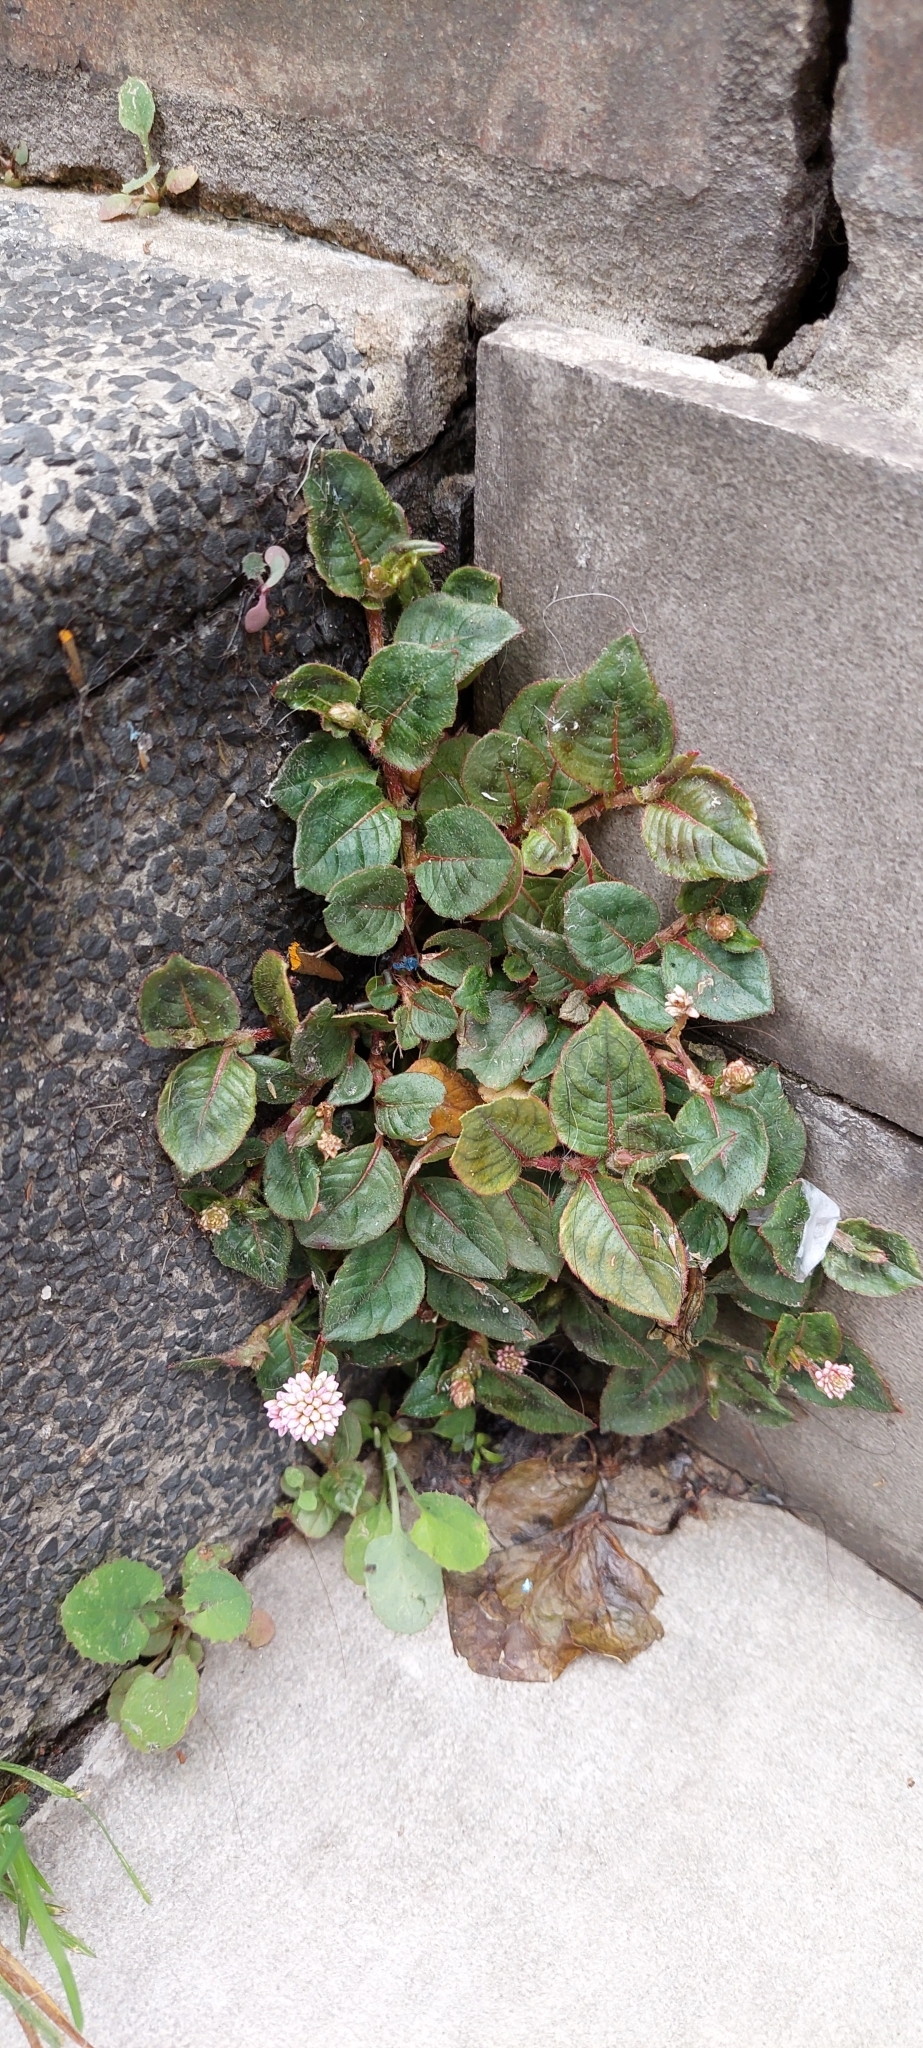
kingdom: Plantae
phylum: Tracheophyta
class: Magnoliopsida
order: Caryophyllales
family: Polygonaceae
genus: Persicaria
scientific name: Persicaria capitata
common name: Pinkhead smartweed
